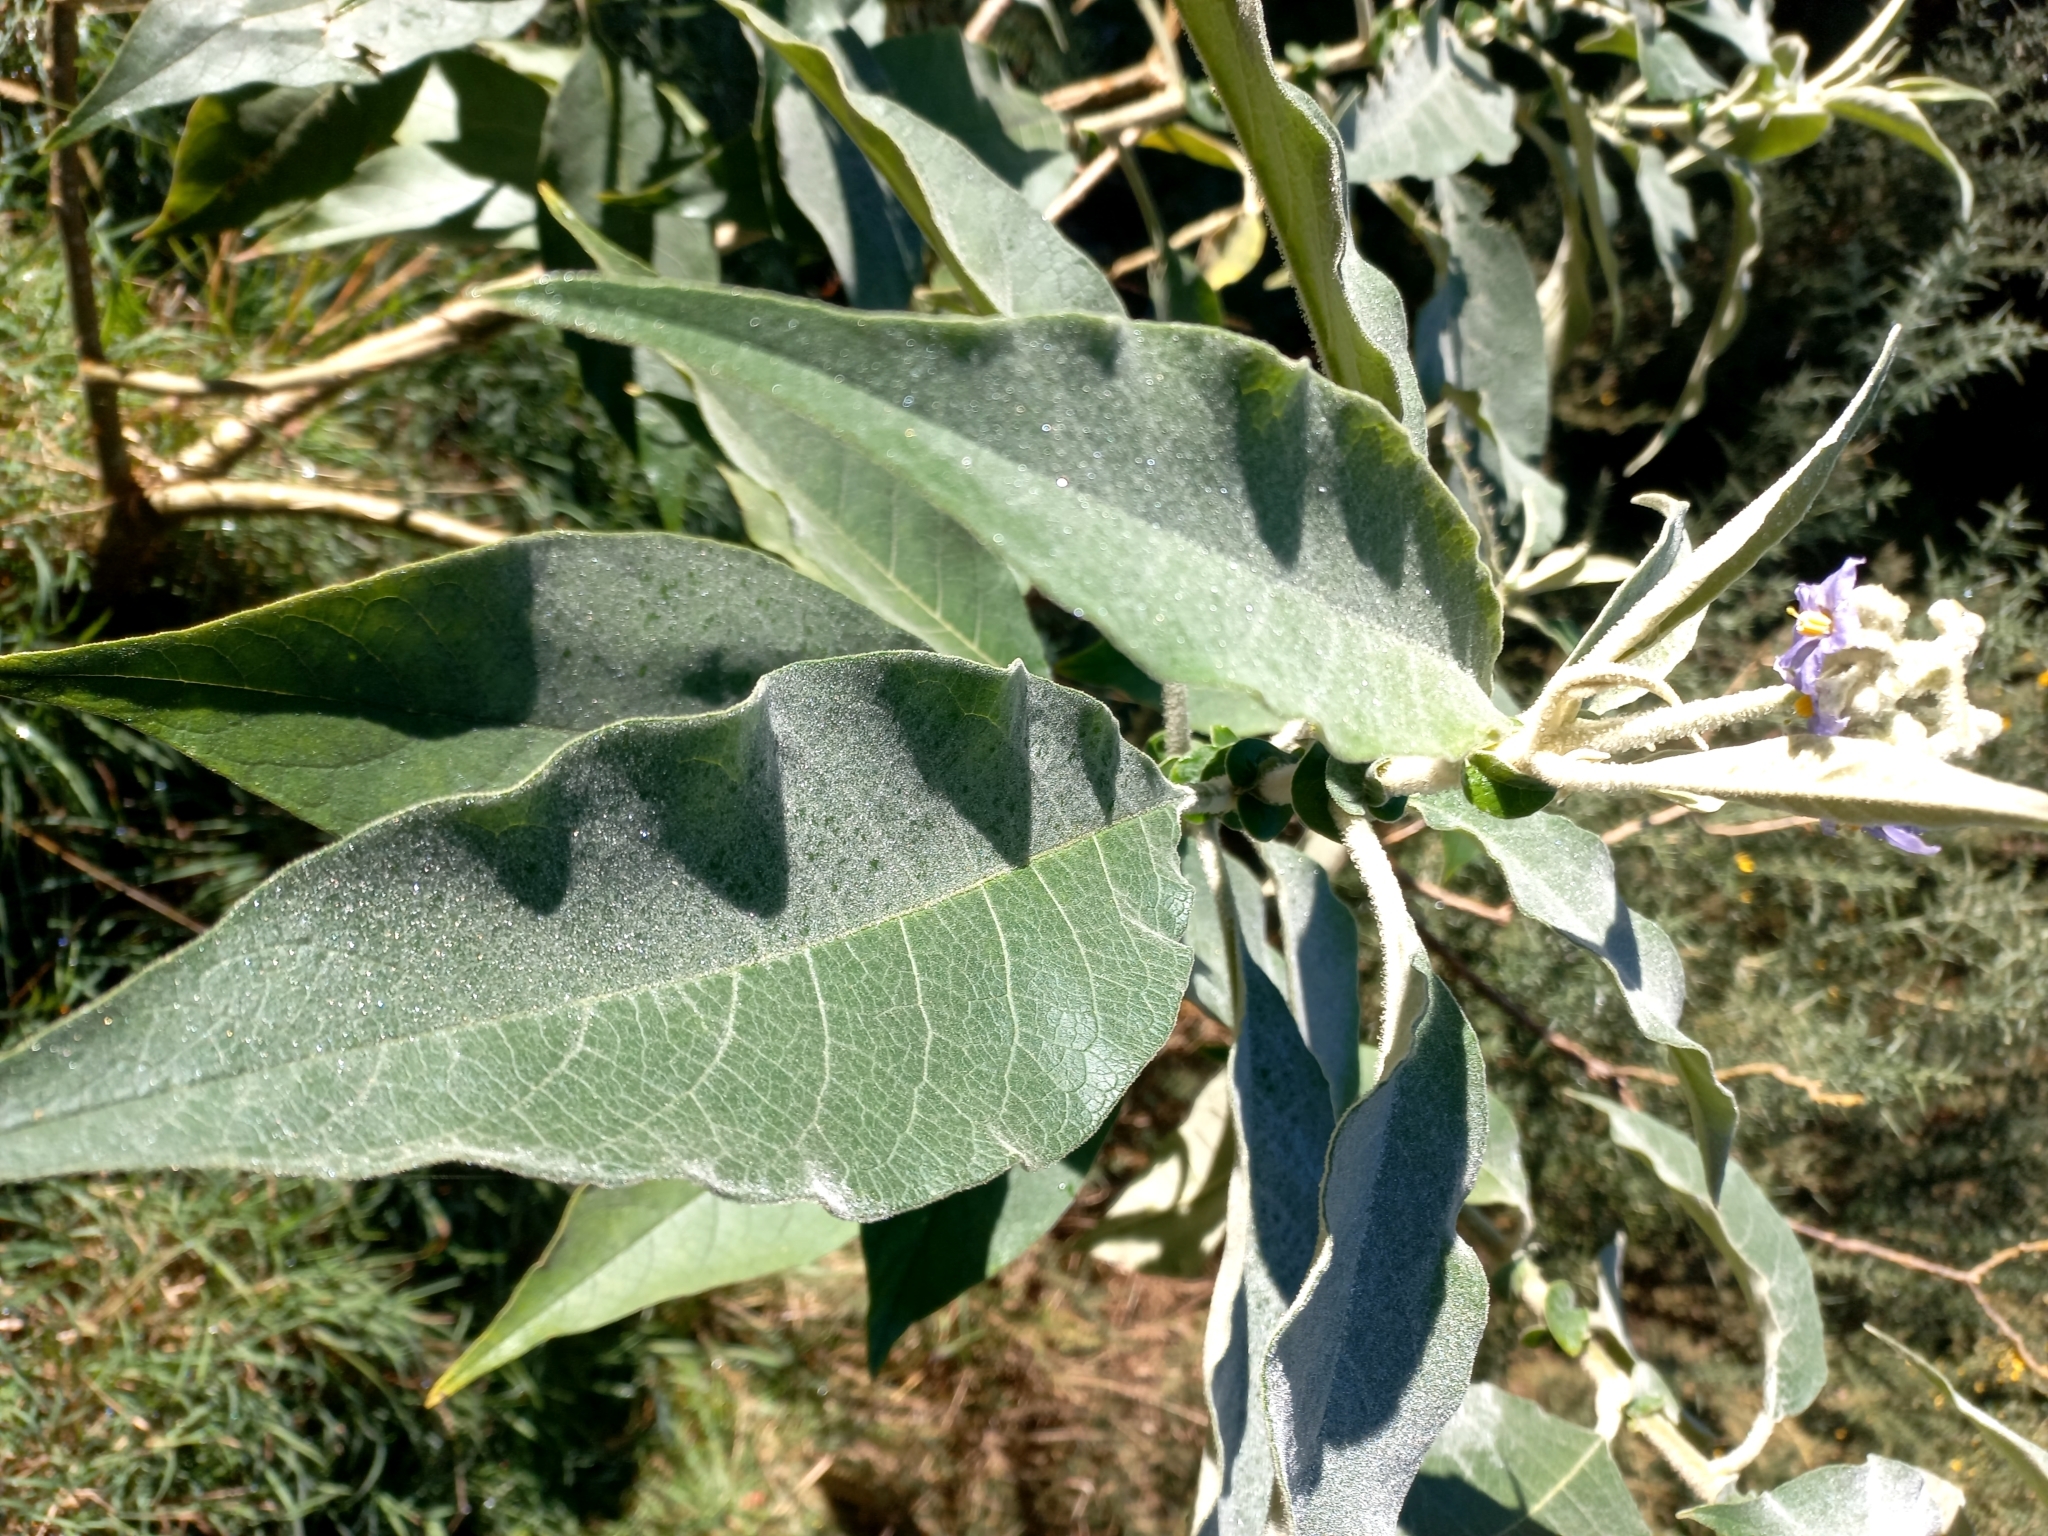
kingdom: Plantae
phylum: Tracheophyta
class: Magnoliopsida
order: Solanales
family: Solanaceae
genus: Solanum
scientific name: Solanum mauritianum
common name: Earleaf nightshade
